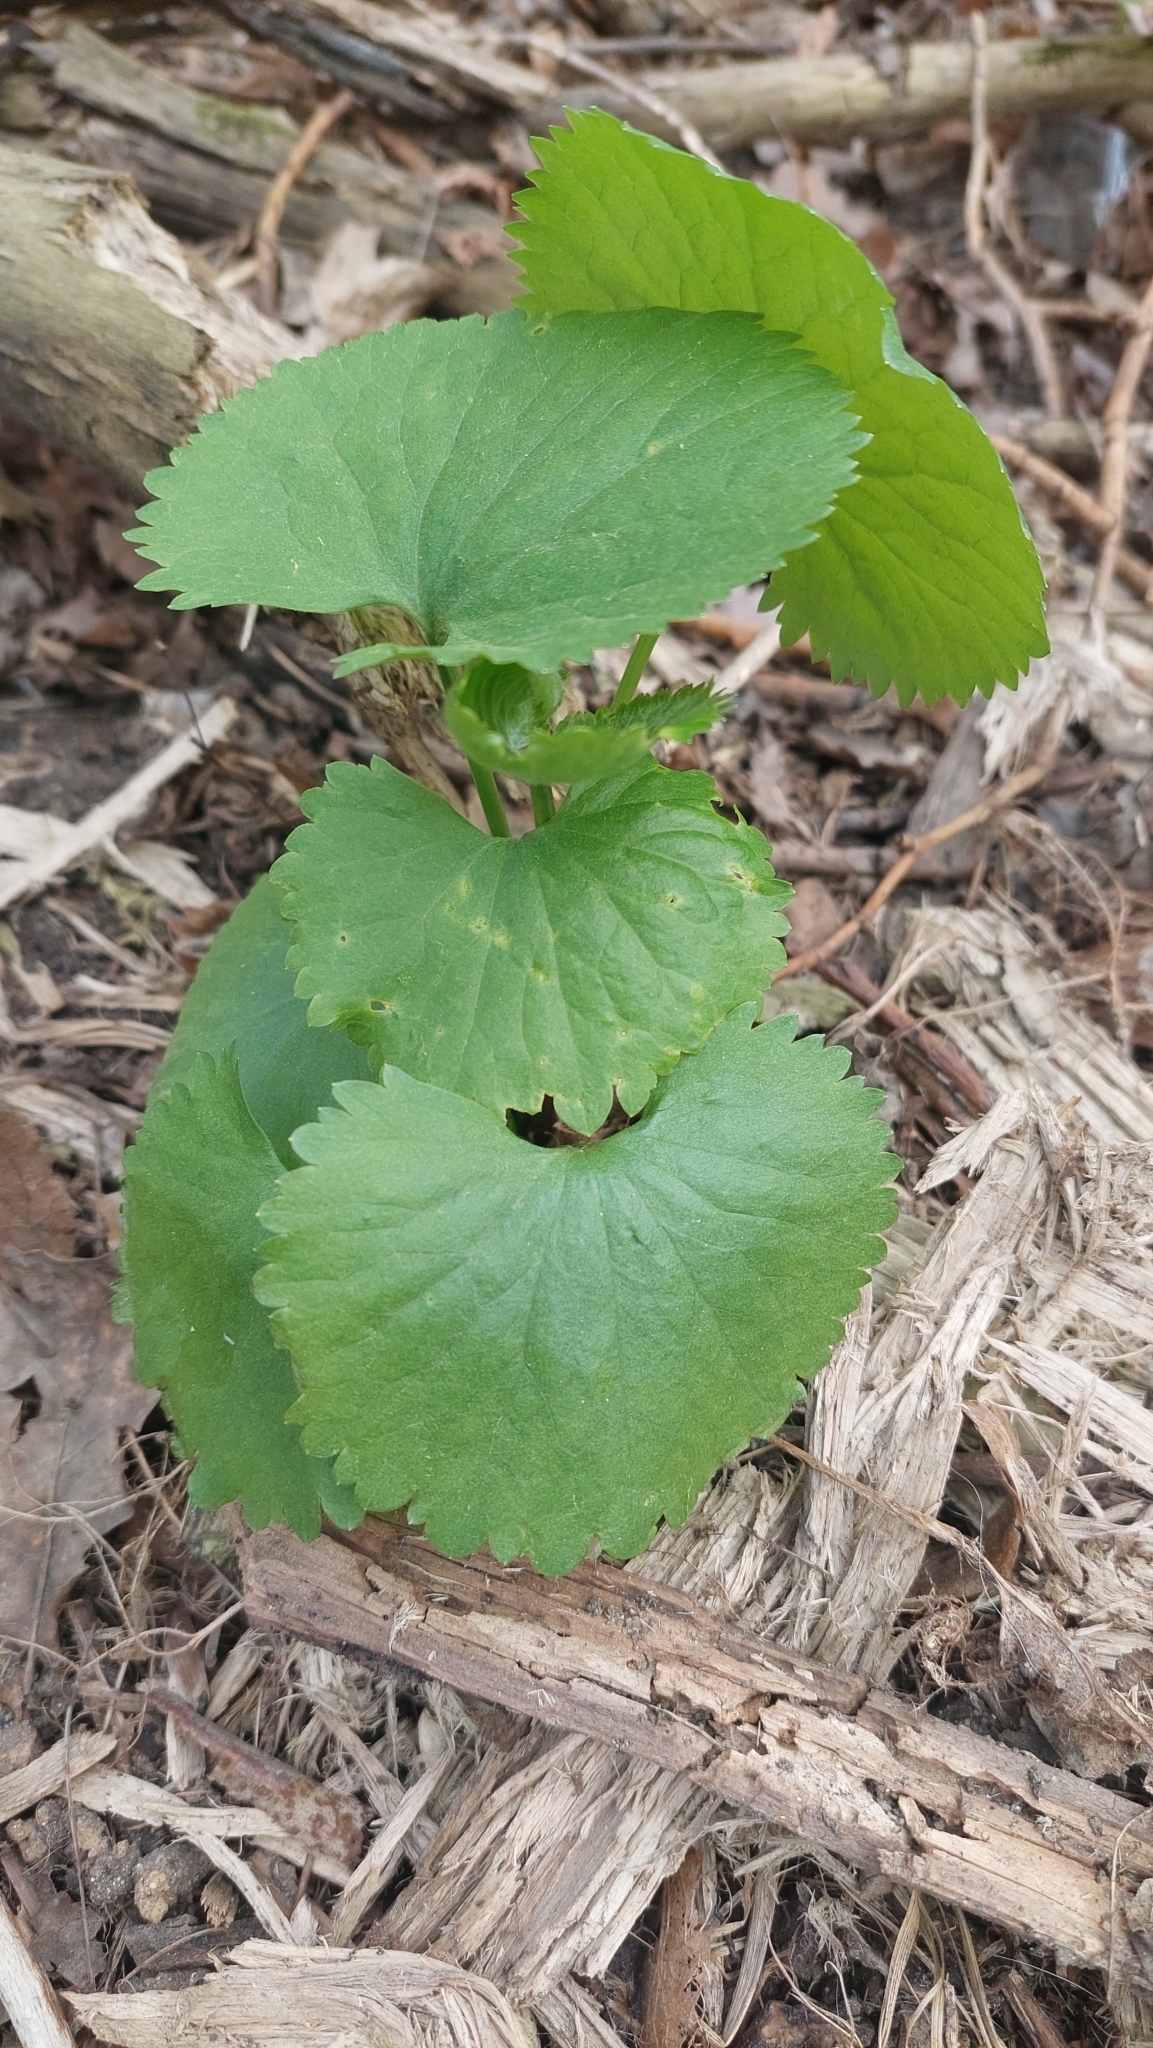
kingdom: Plantae
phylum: Tracheophyta
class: Magnoliopsida
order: Ranunculales
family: Ranunculaceae
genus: Ranunculus
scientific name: Ranunculus cassubicus
